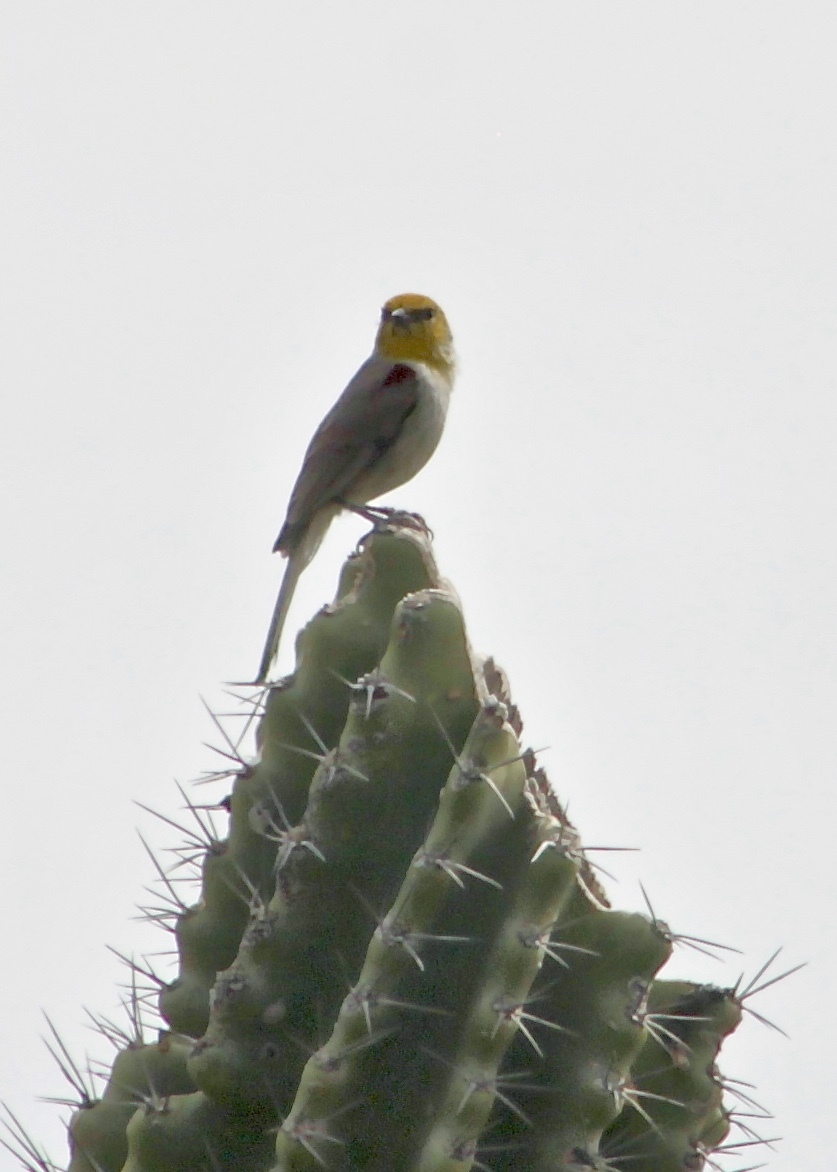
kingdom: Animalia
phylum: Chordata
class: Aves
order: Passeriformes
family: Remizidae
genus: Auriparus
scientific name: Auriparus flaviceps
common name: Verdin
